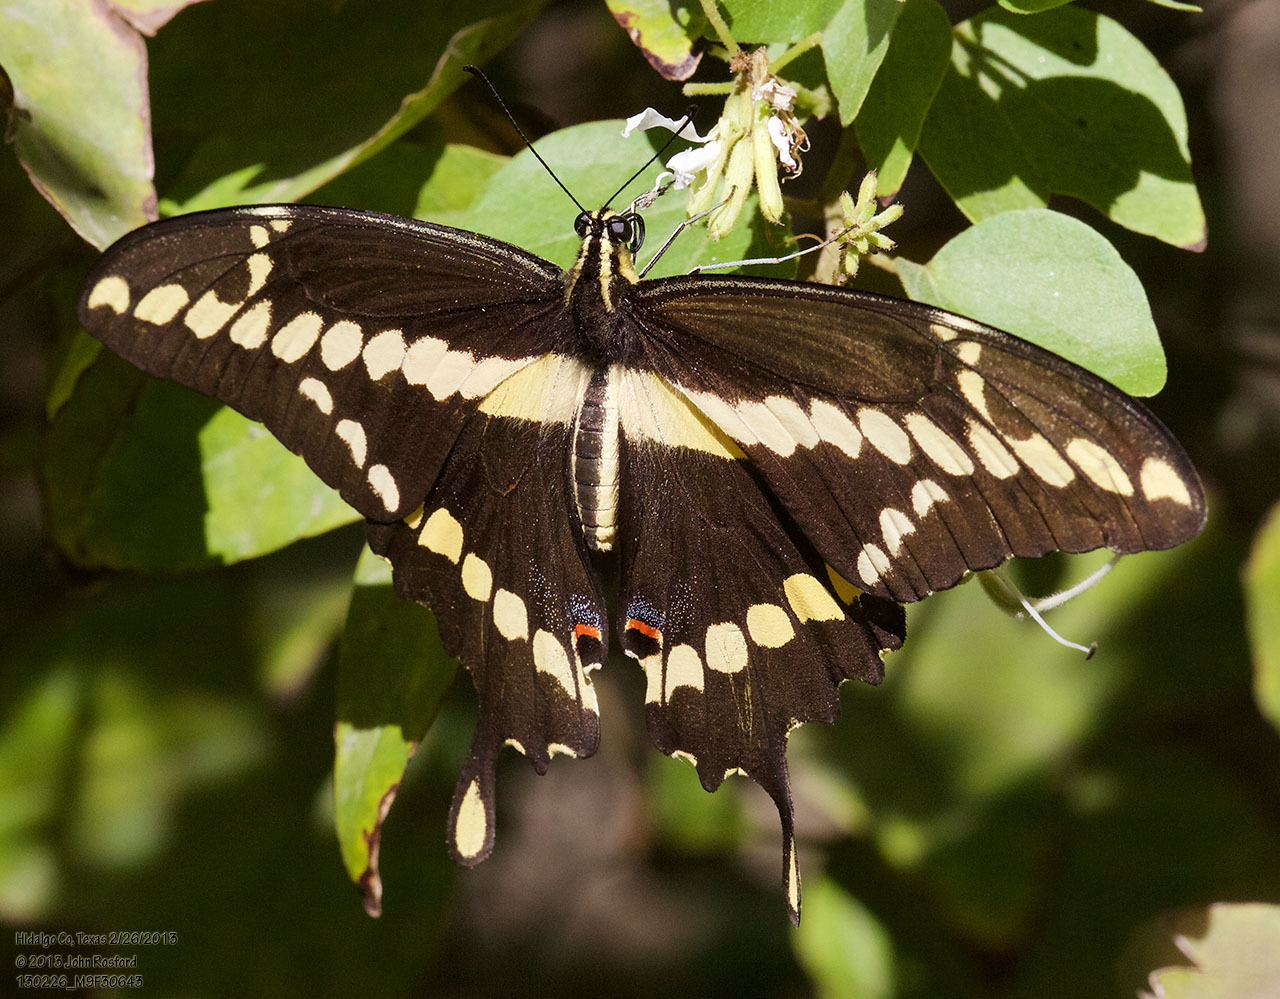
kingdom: Animalia
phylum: Arthropoda
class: Insecta
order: Lepidoptera
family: Papilionidae
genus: Papilio
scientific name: Papilio rumiko
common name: Western giant swallowtail
